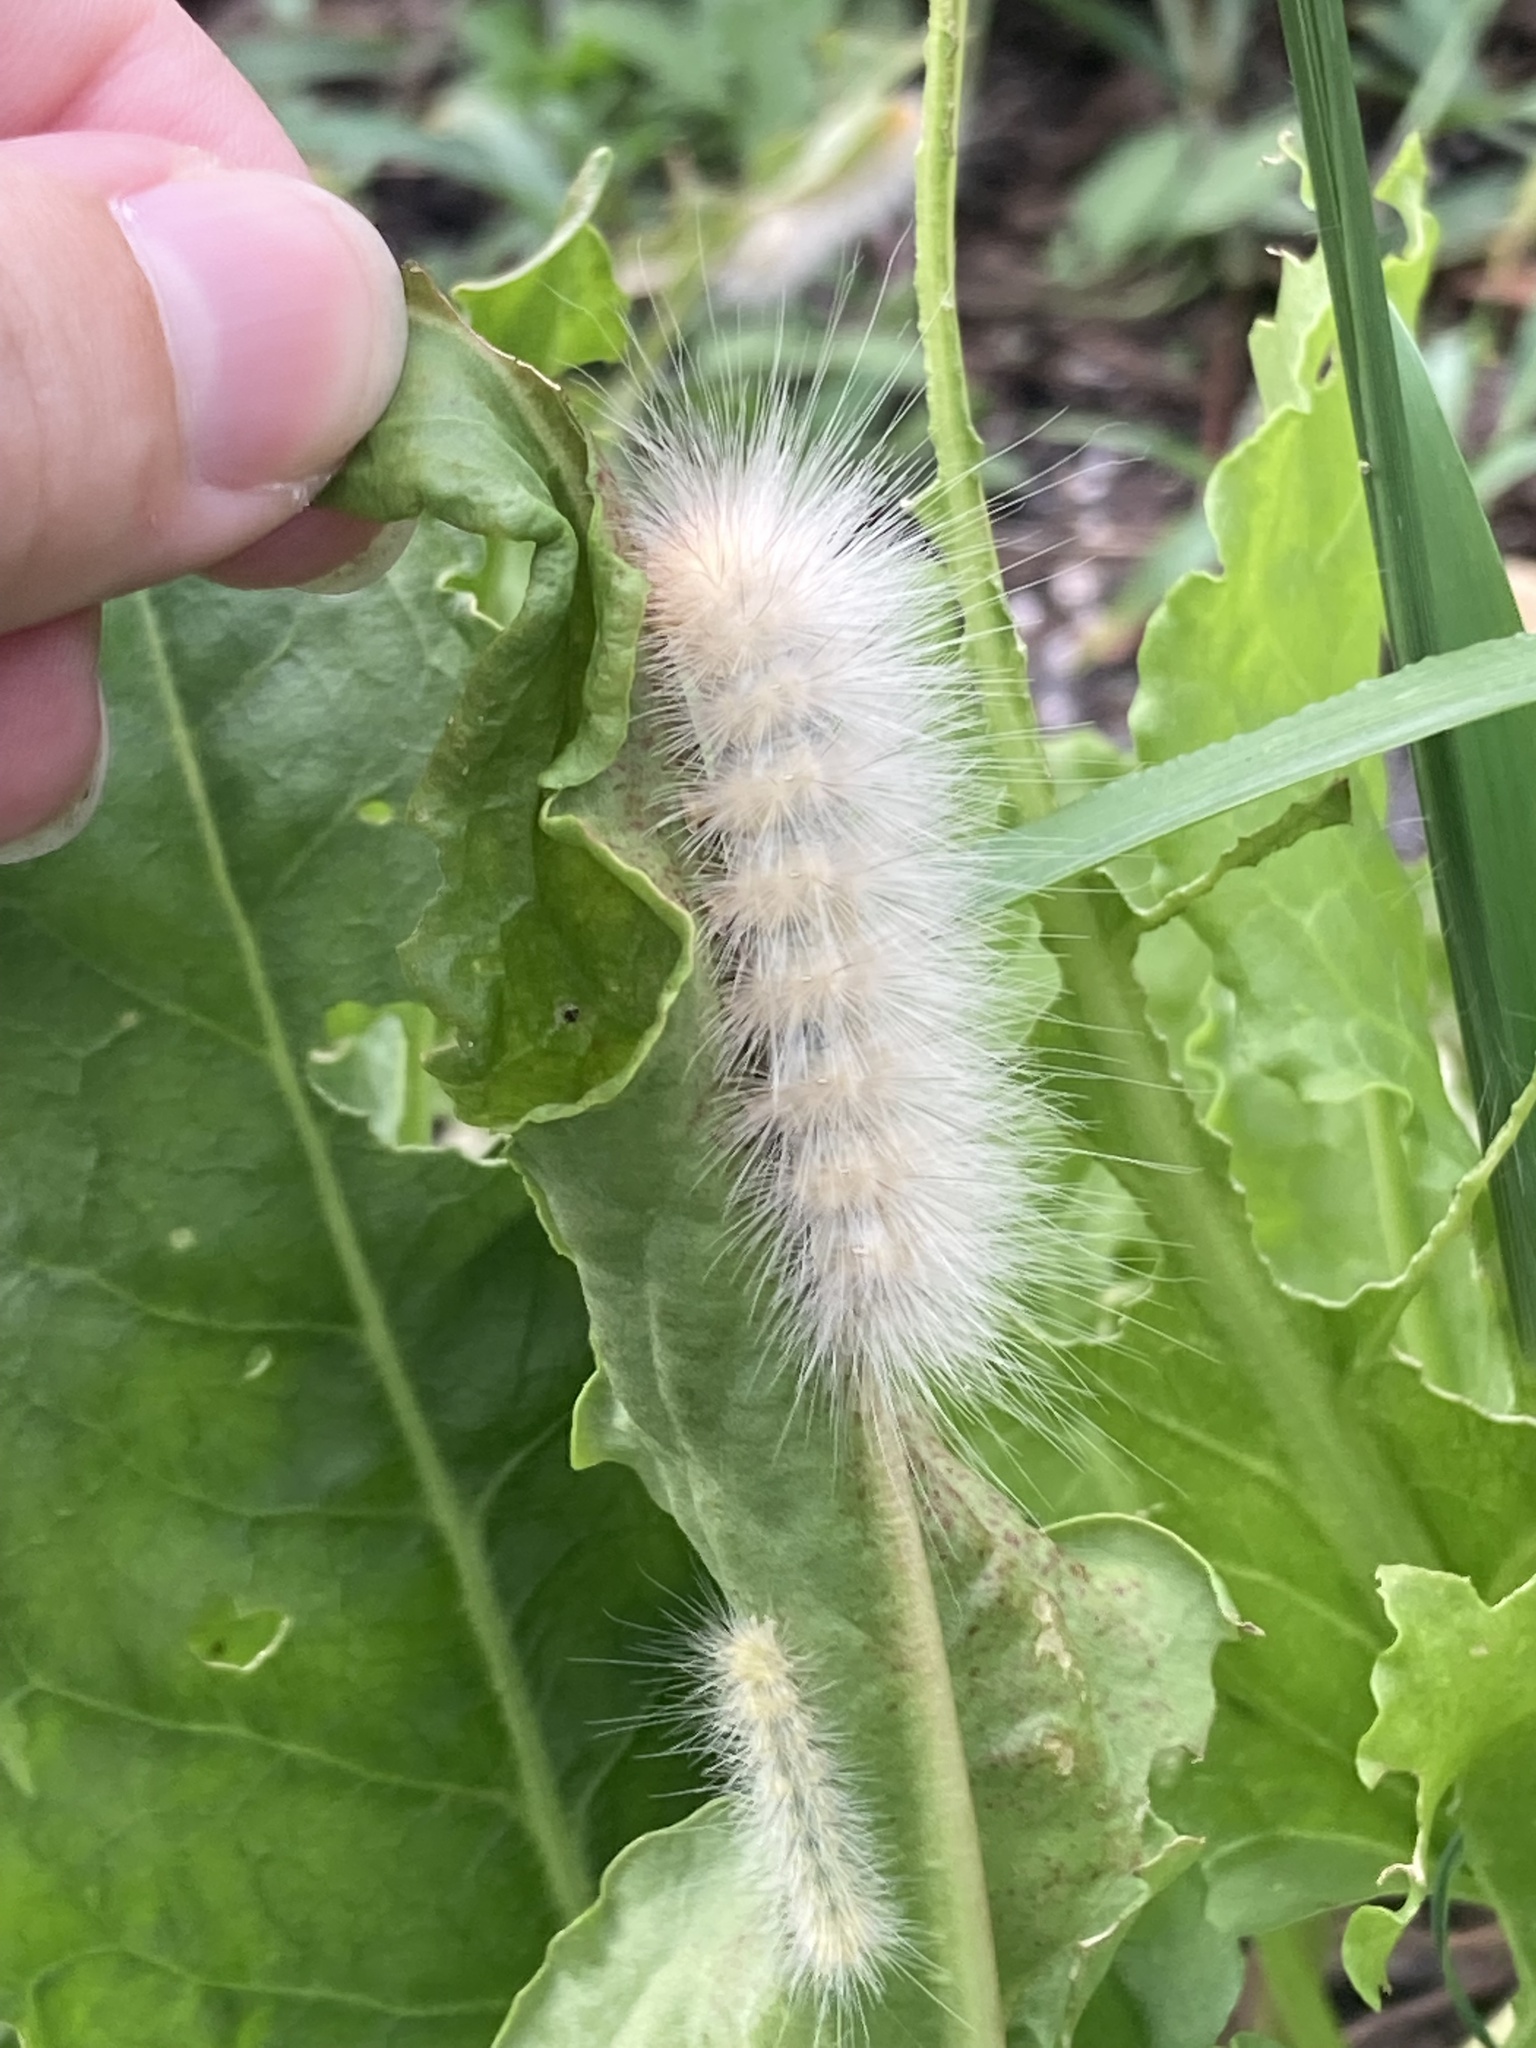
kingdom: Animalia
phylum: Arthropoda
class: Insecta
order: Lepidoptera
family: Erebidae
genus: Spilosoma
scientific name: Spilosoma virginica
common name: Virginia tiger moth
